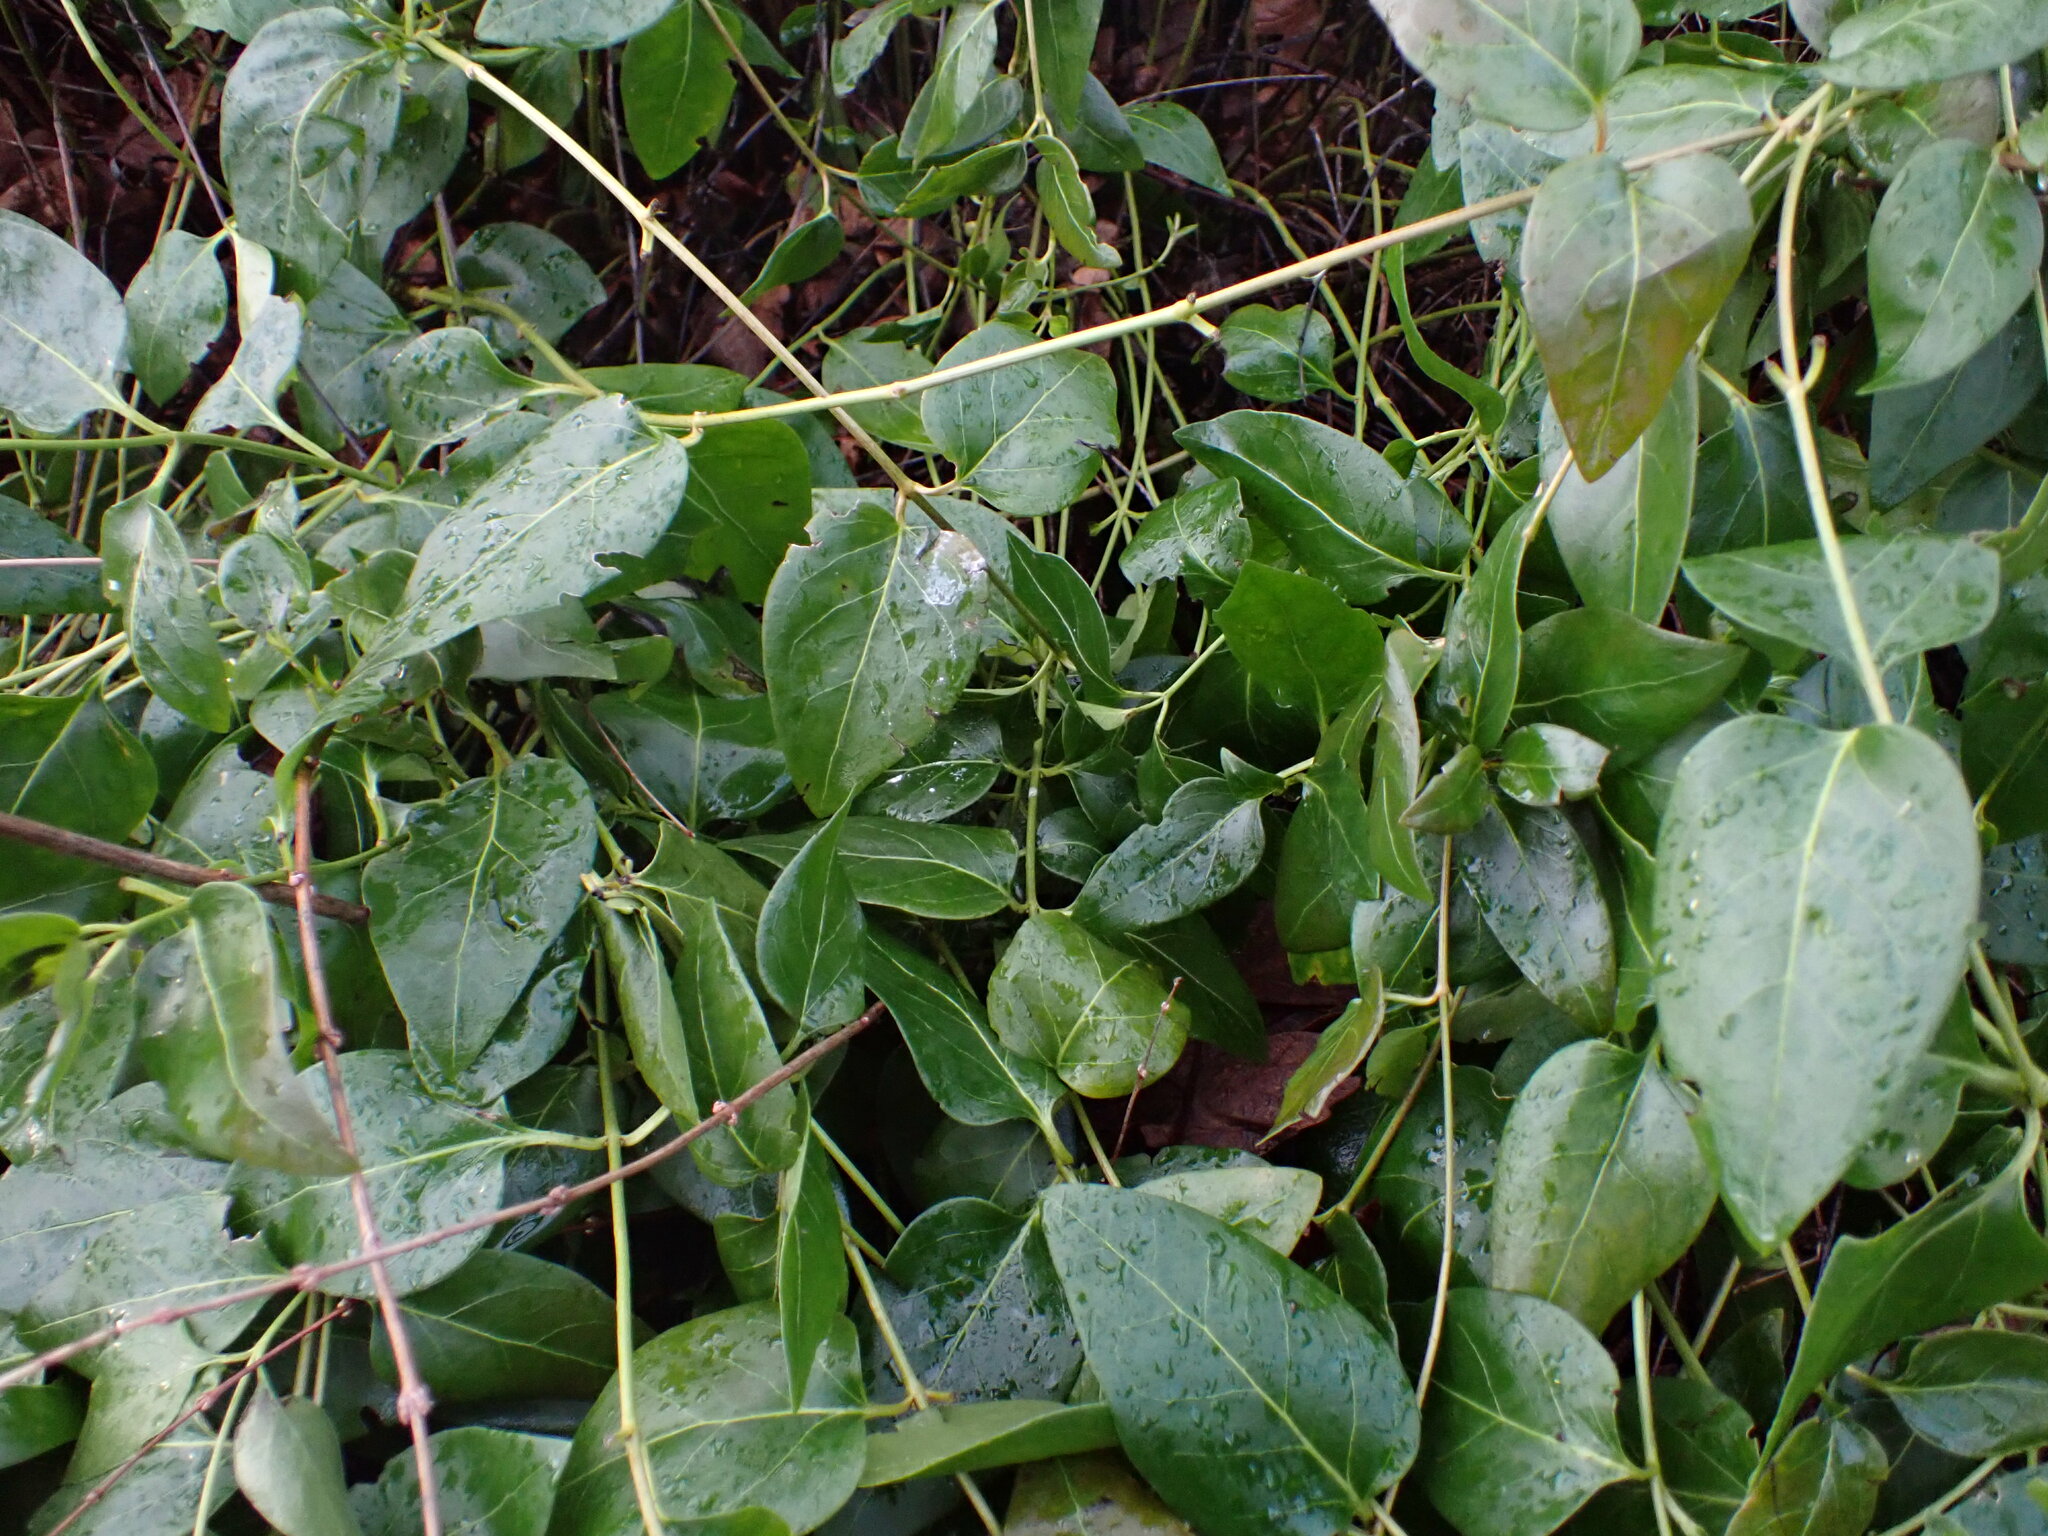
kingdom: Plantae
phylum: Tracheophyta
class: Magnoliopsida
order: Gentianales
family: Apocynaceae
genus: Vinca
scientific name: Vinca major
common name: Greater periwinkle
